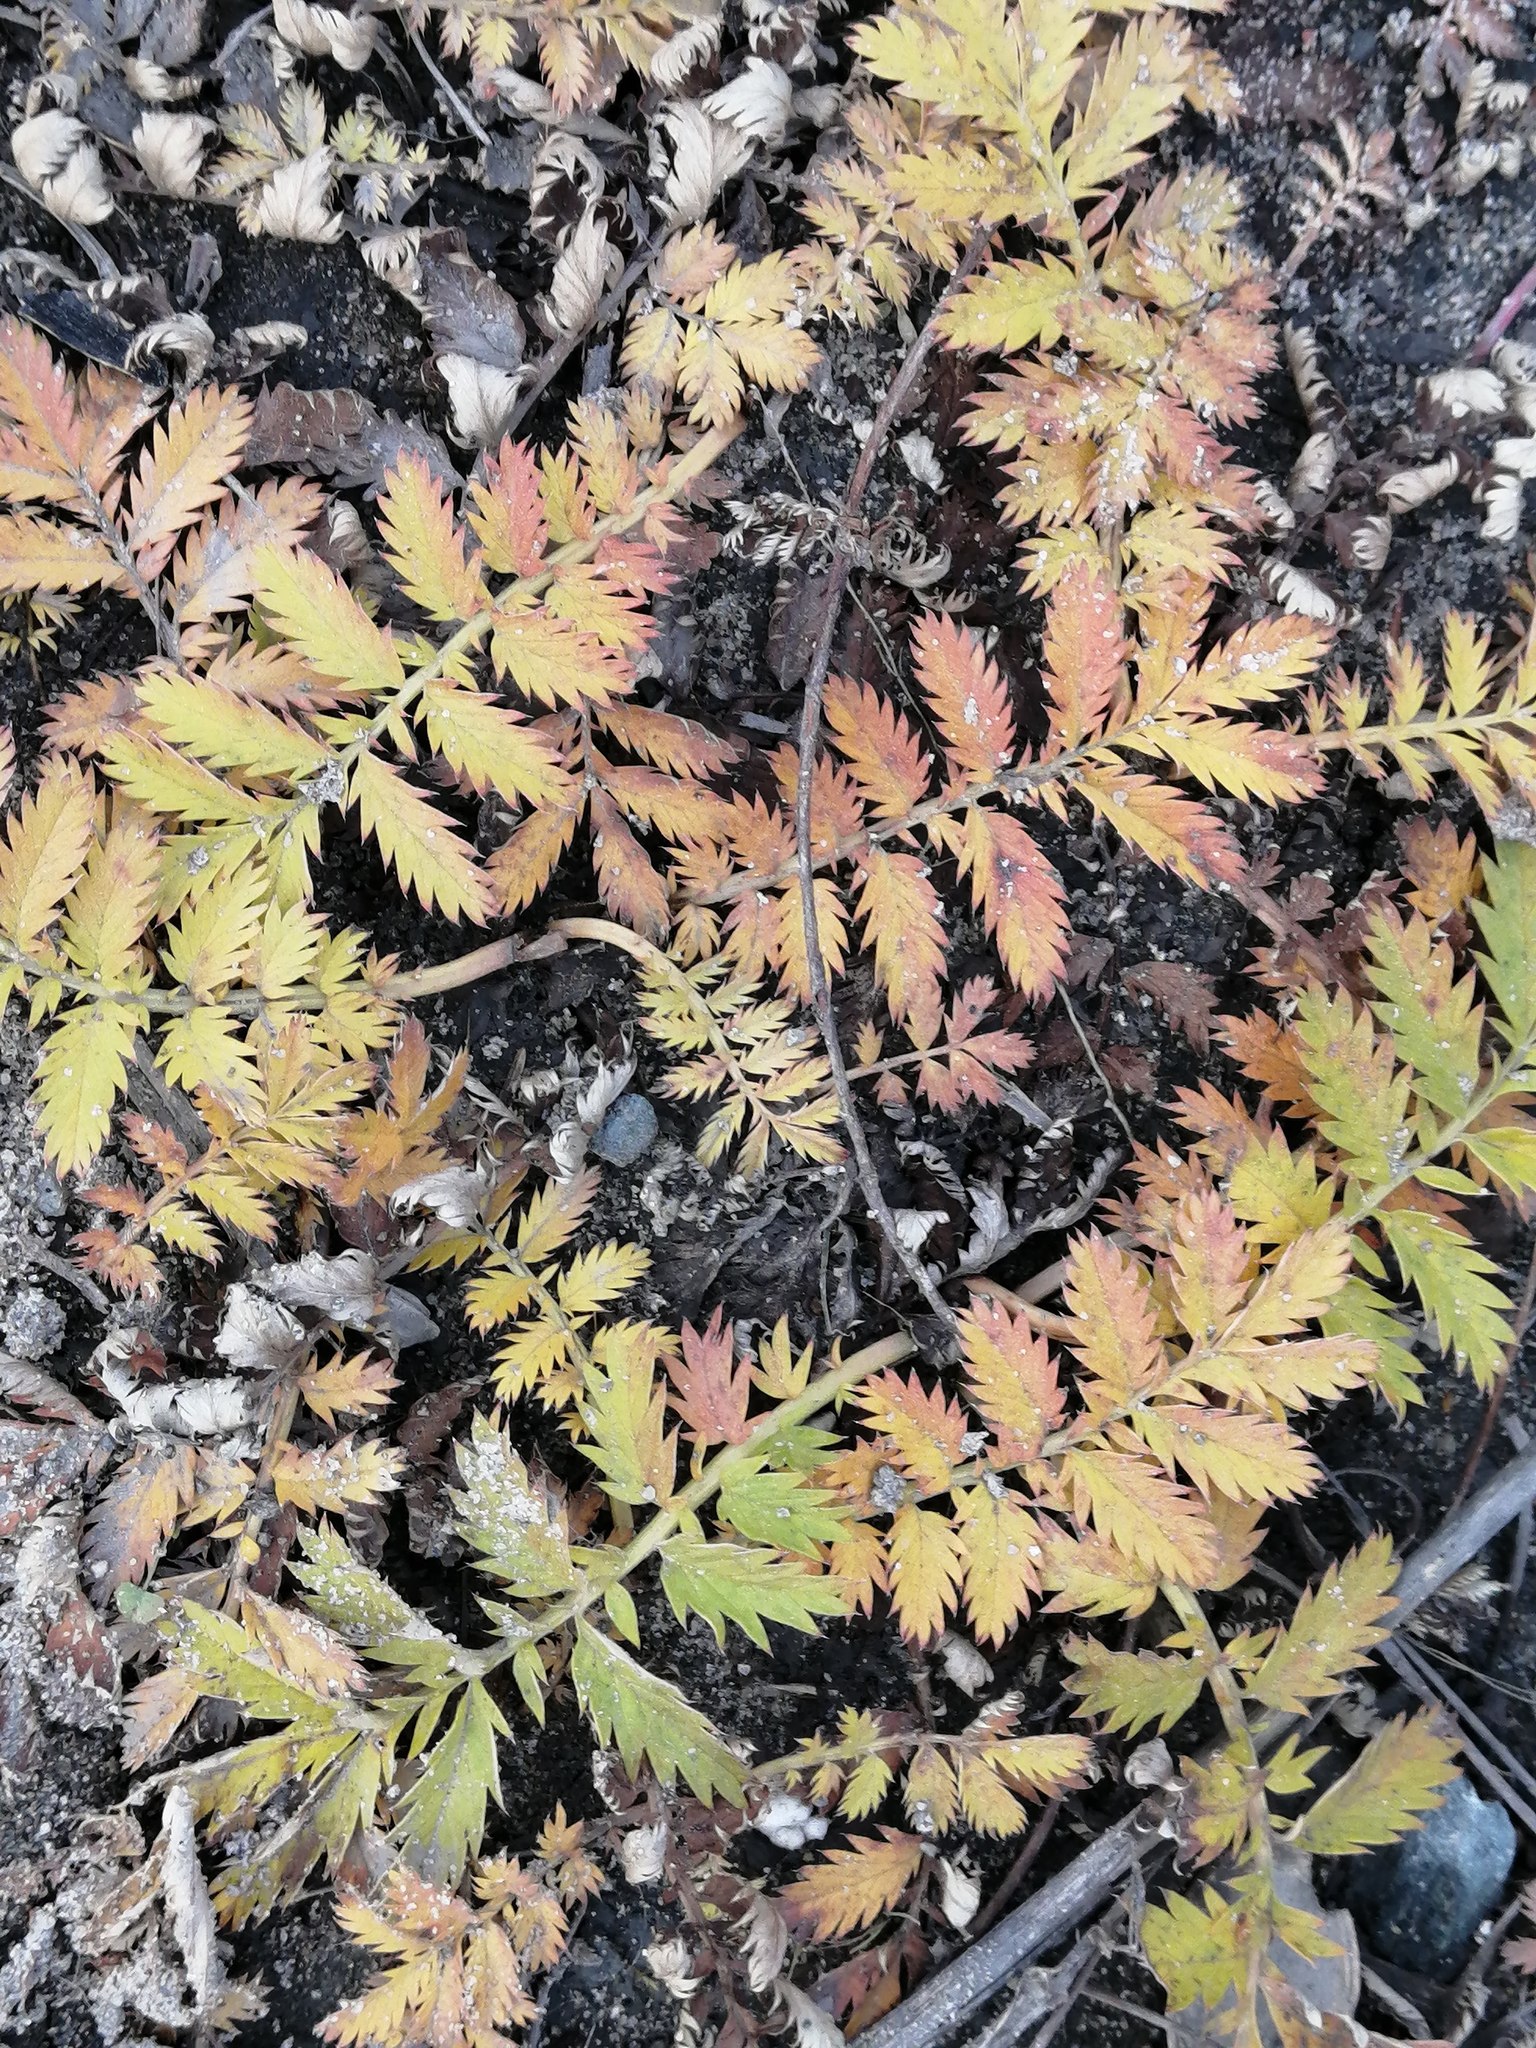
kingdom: Plantae
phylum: Tracheophyta
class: Magnoliopsida
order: Rosales
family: Rosaceae
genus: Argentina
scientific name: Argentina anserina
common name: Common silverweed
